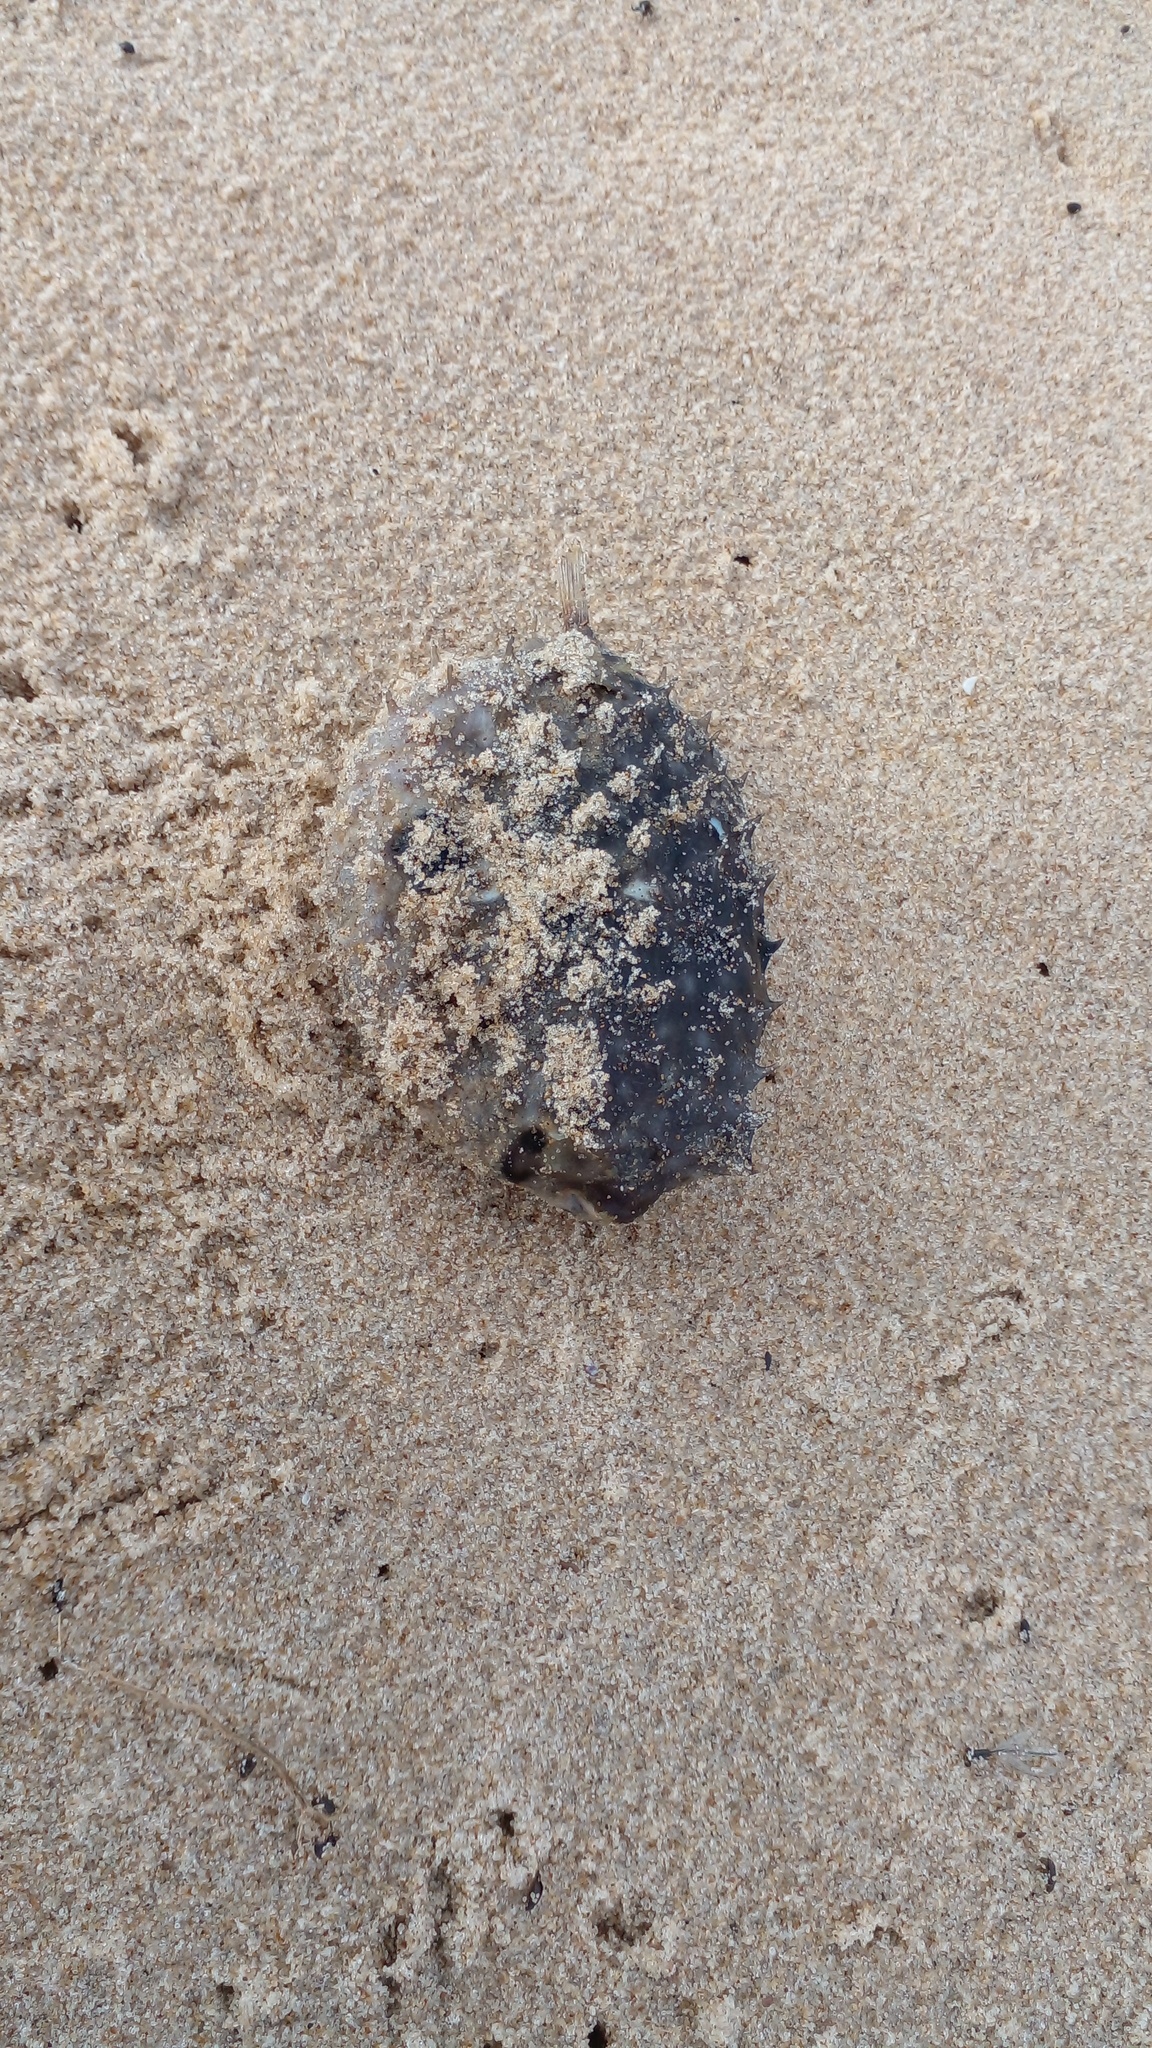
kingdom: Animalia
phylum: Chordata
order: Tetraodontiformes
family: Diodontidae
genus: Chilomycterus
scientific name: Chilomycterus spinosus
